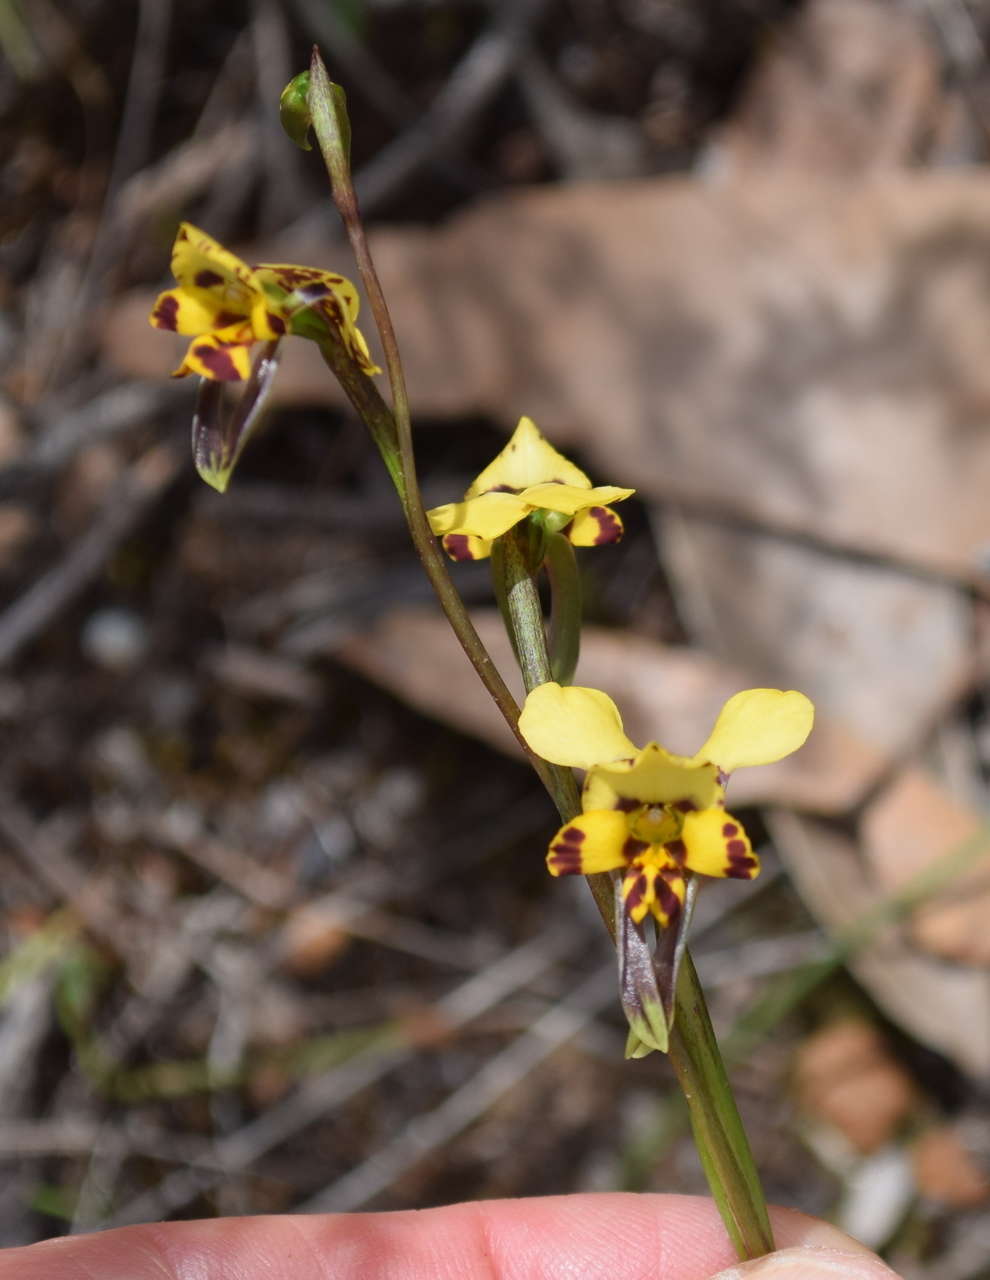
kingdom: Plantae
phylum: Tracheophyta
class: Liliopsida
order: Asparagales
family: Orchidaceae
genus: Diuris
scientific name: Diuris pardina
